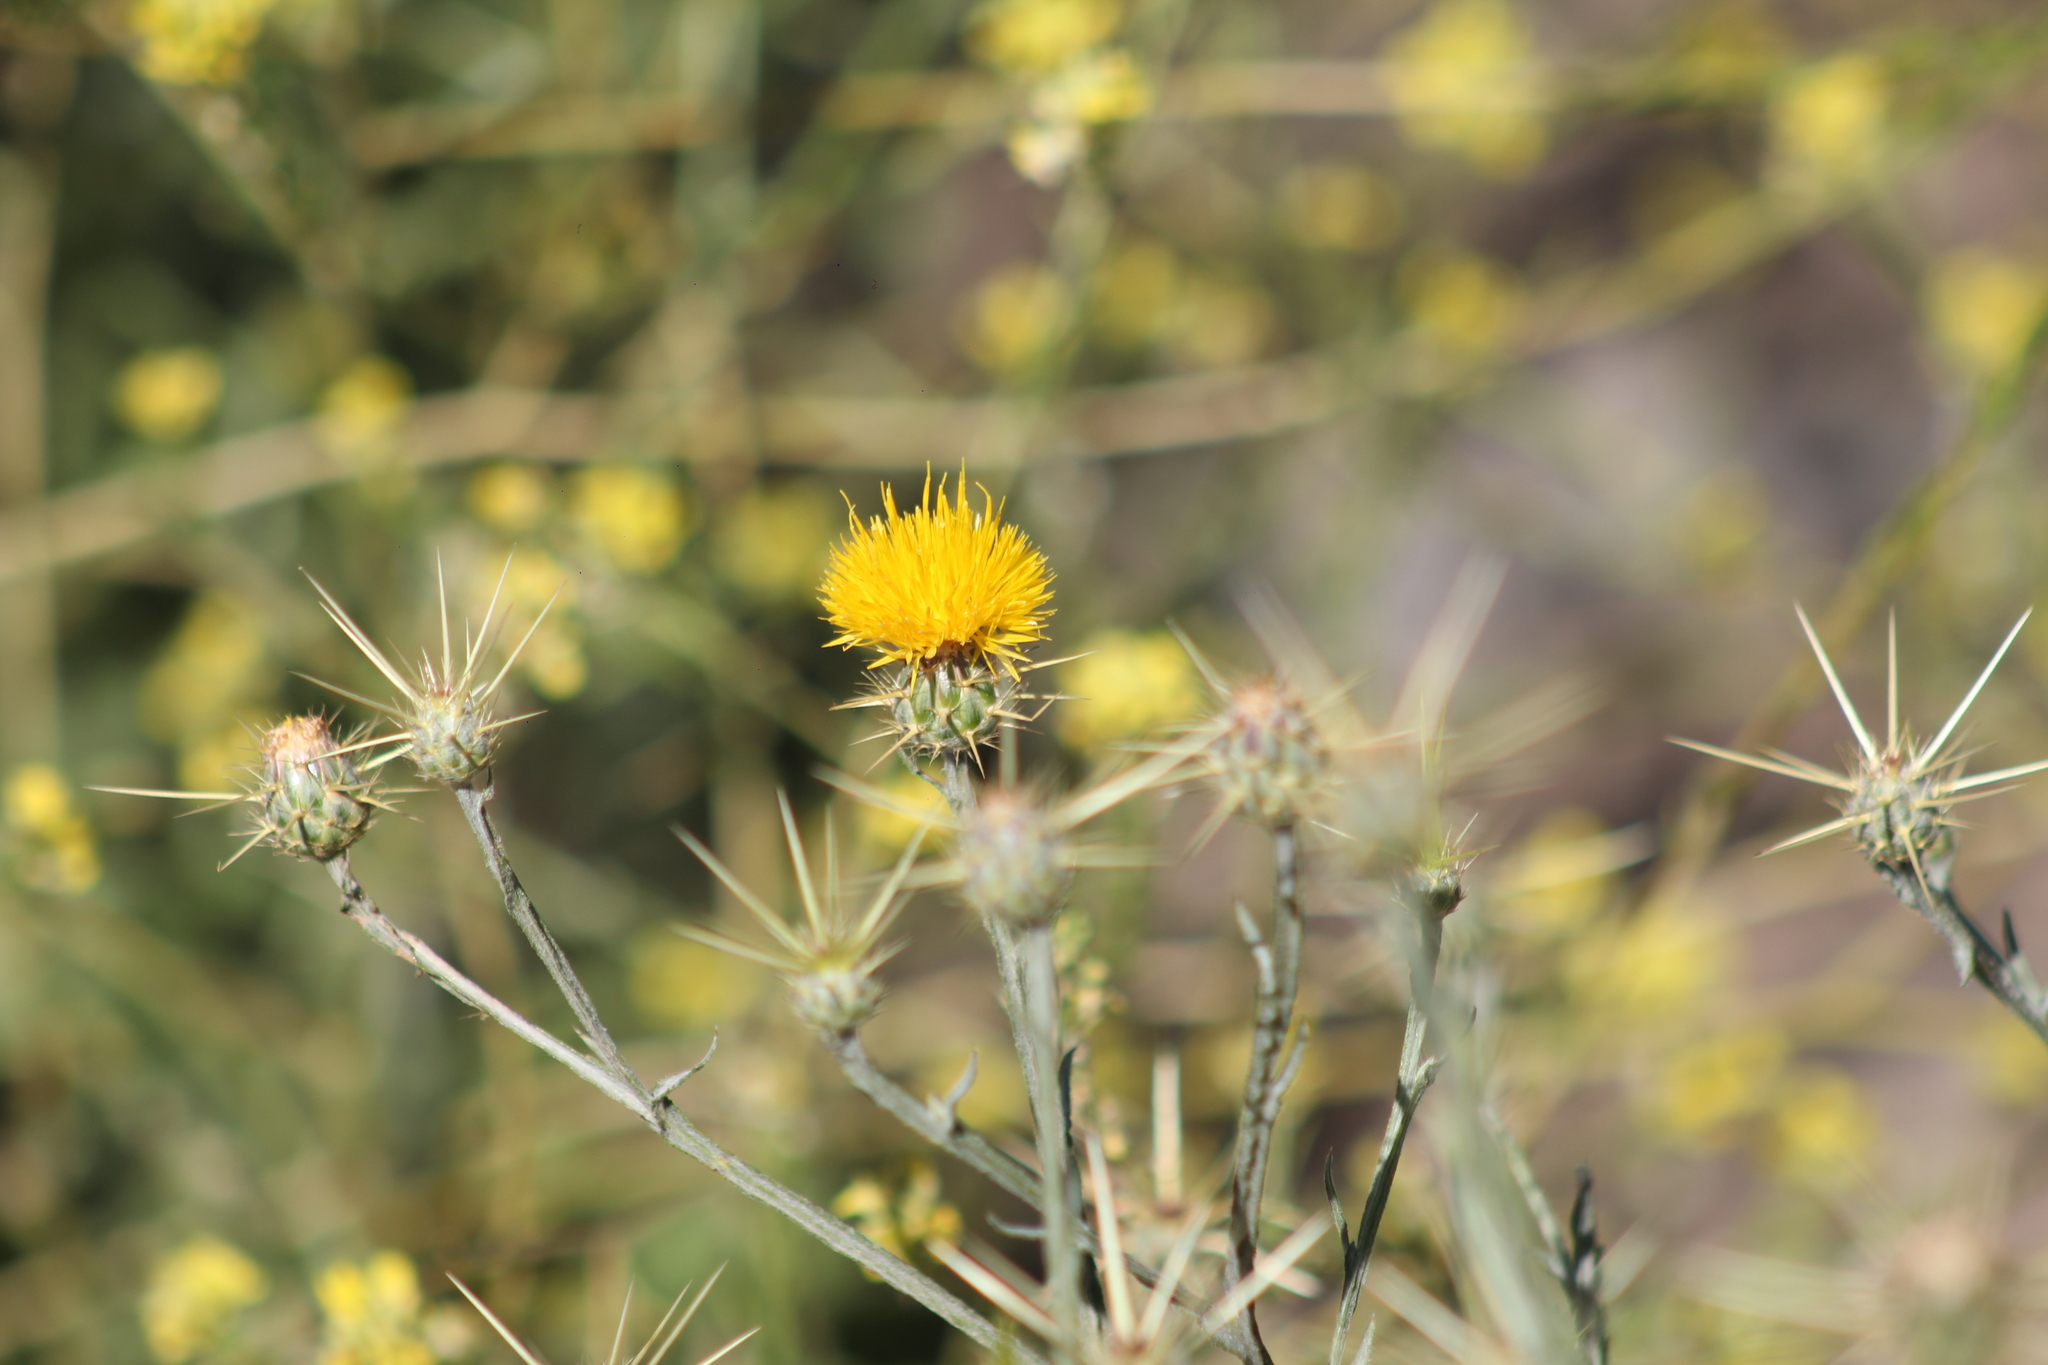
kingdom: Plantae
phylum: Tracheophyta
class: Magnoliopsida
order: Asterales
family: Asteraceae
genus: Centaurea
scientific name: Centaurea solstitialis
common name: Yellow star-thistle
